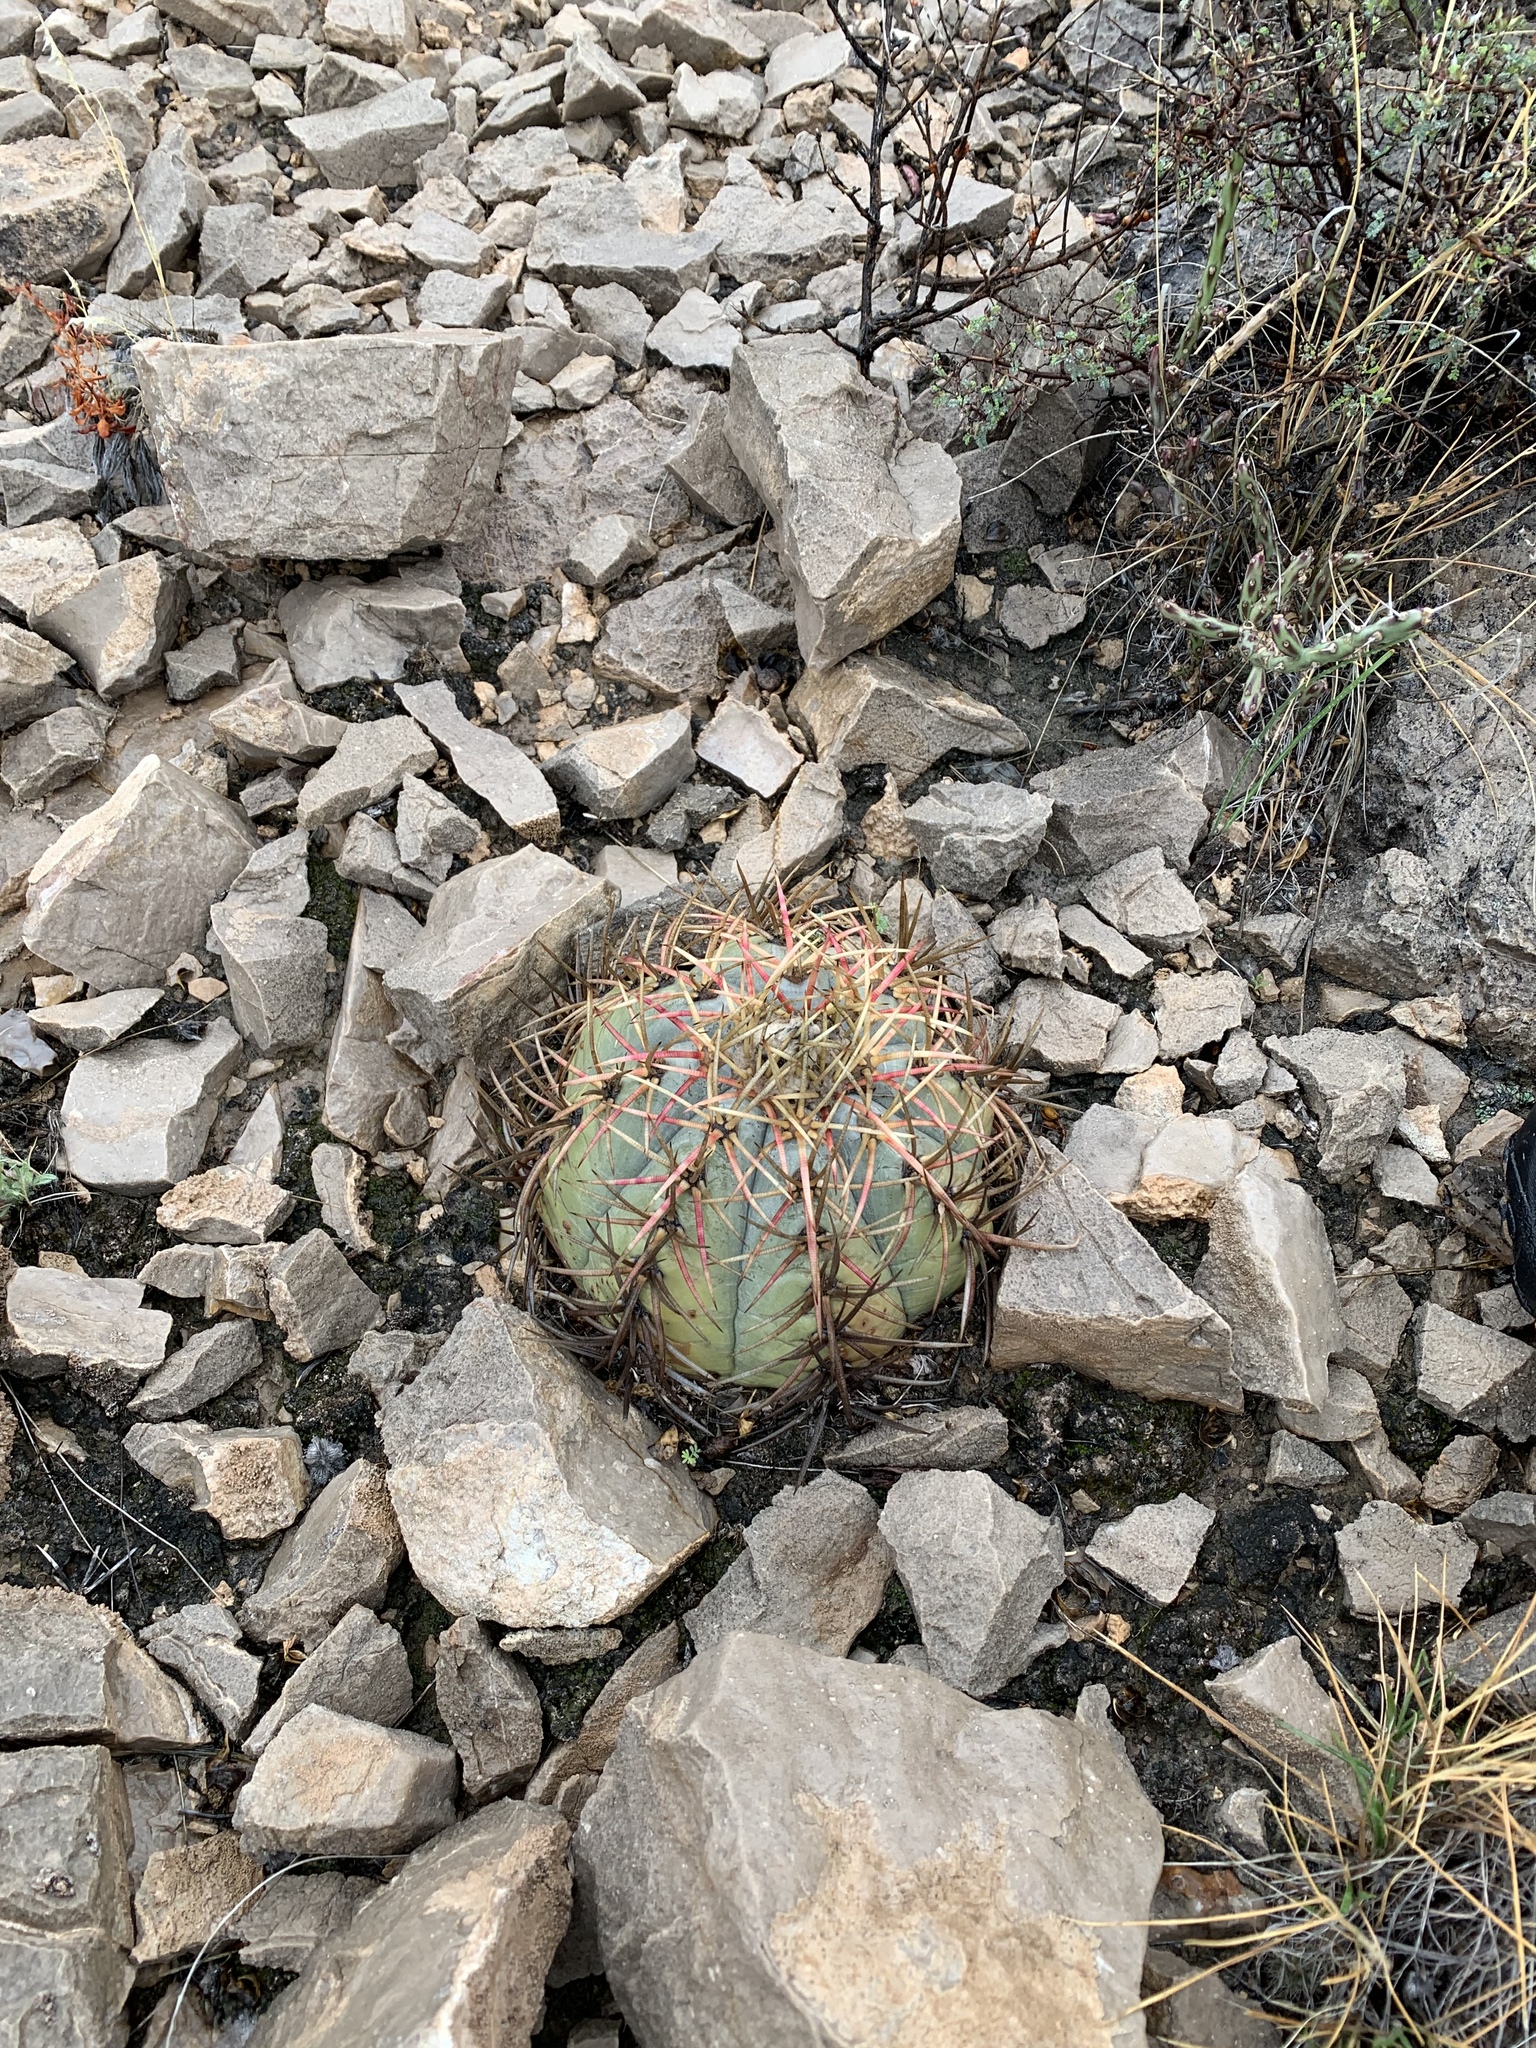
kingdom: Plantae
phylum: Tracheophyta
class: Magnoliopsida
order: Caryophyllales
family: Cactaceae
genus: Echinocactus
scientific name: Echinocactus horizonthalonius
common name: Devilshead
